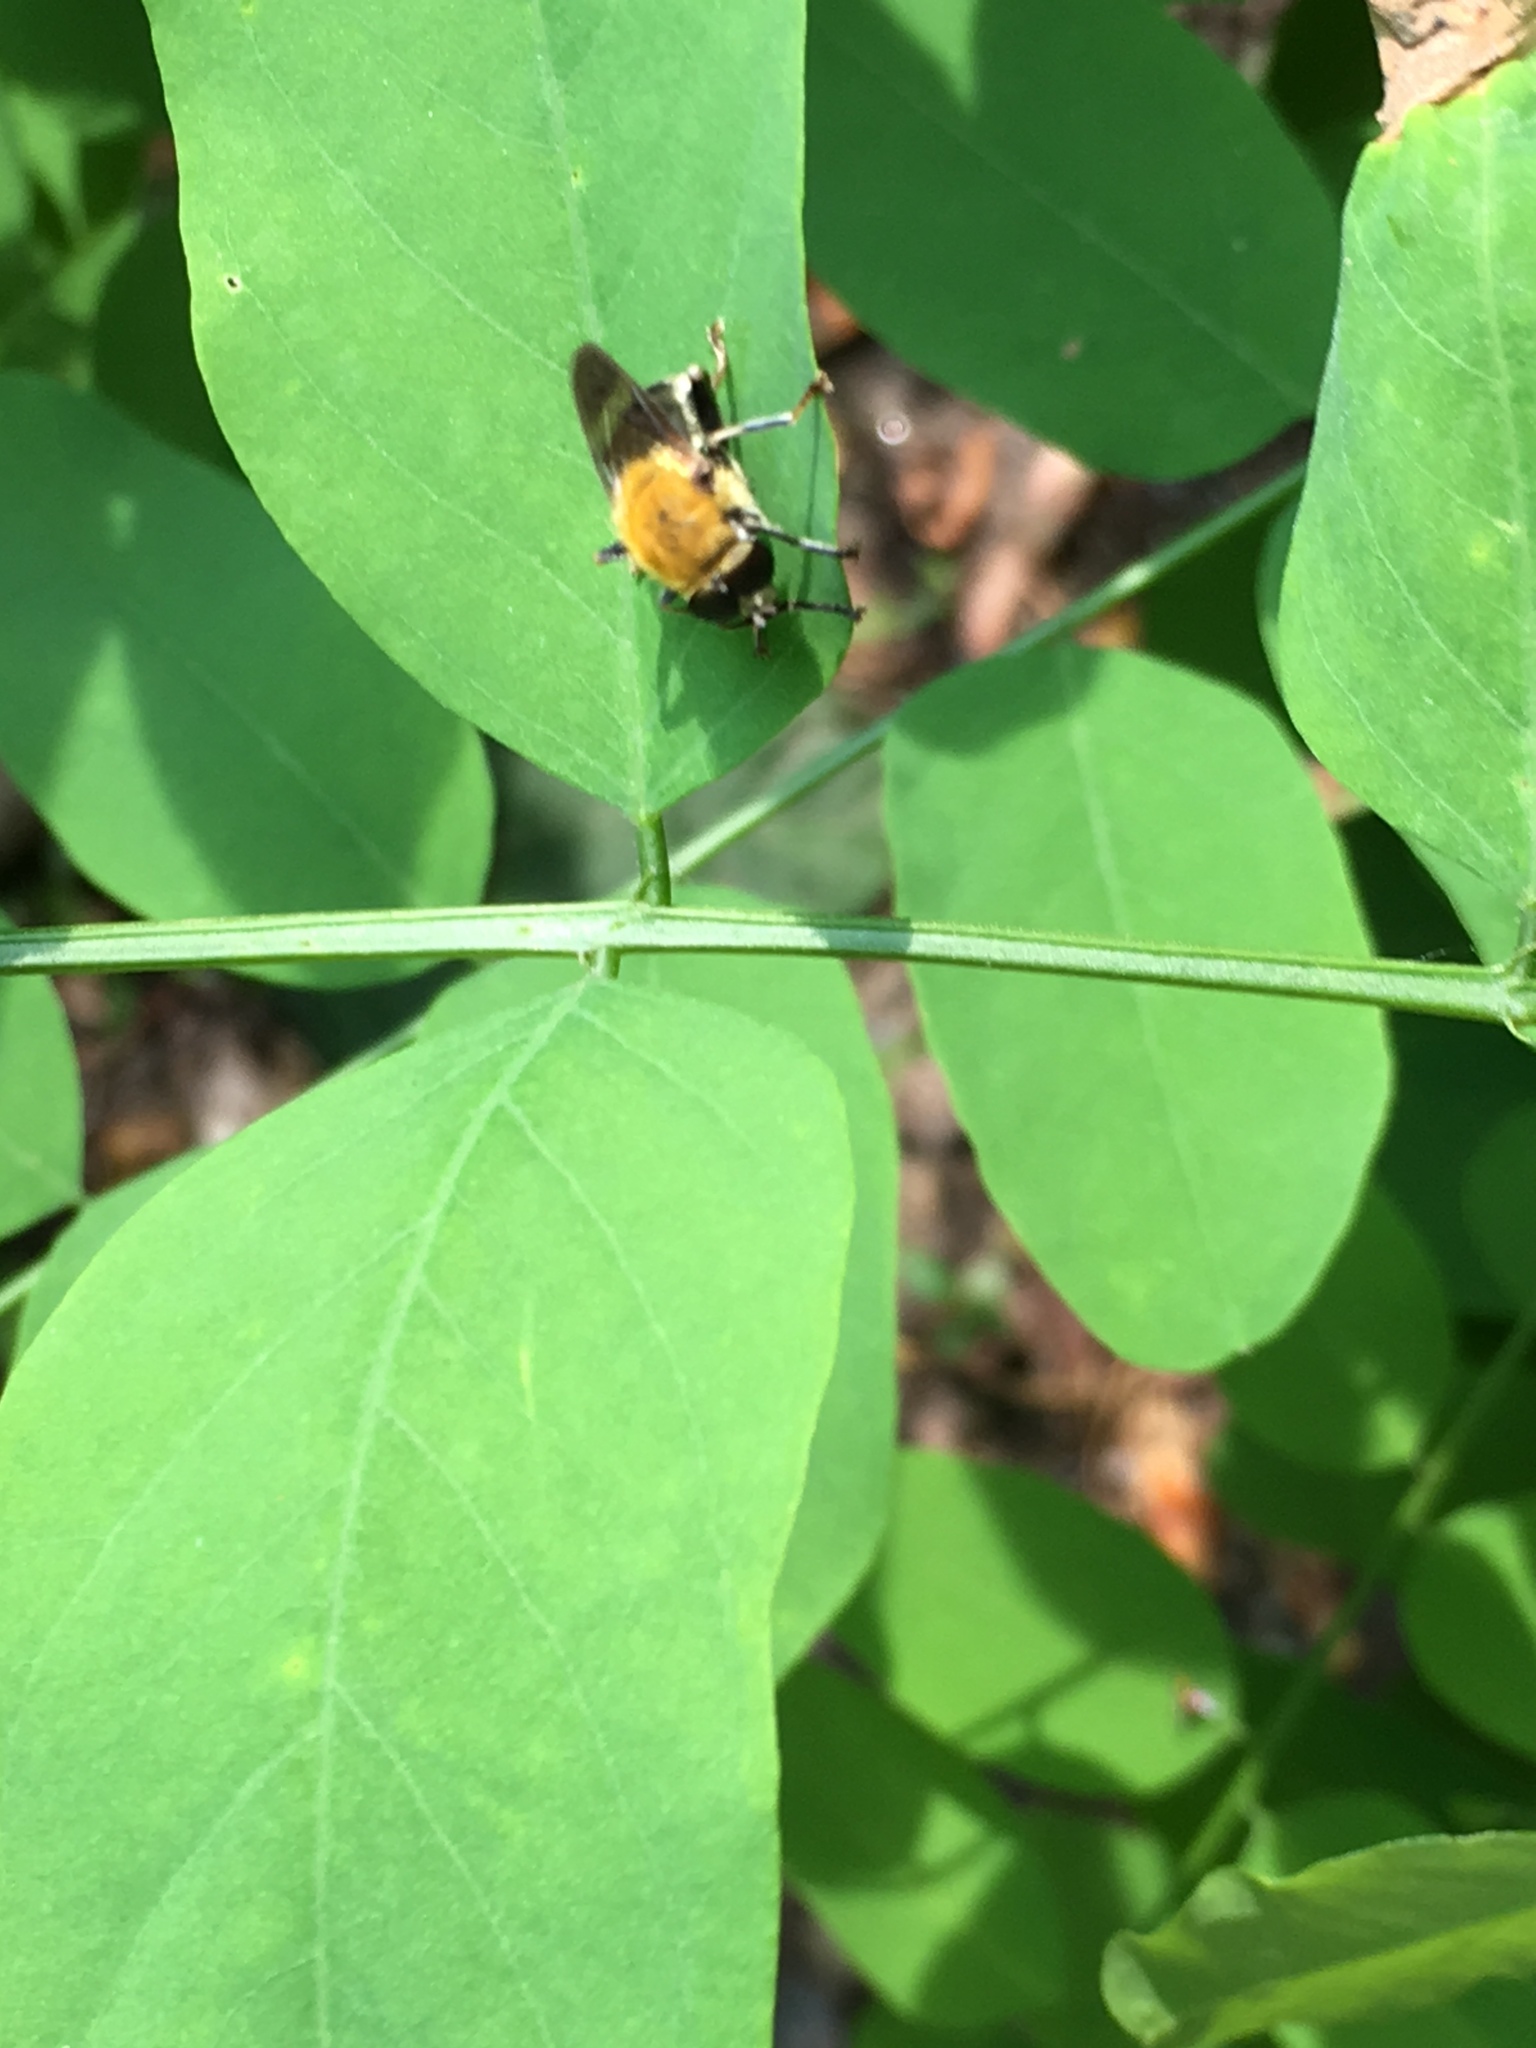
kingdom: Animalia
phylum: Arthropoda
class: Insecta
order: Diptera
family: Syrphidae
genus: Pterallastes
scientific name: Pterallastes thoracicus
